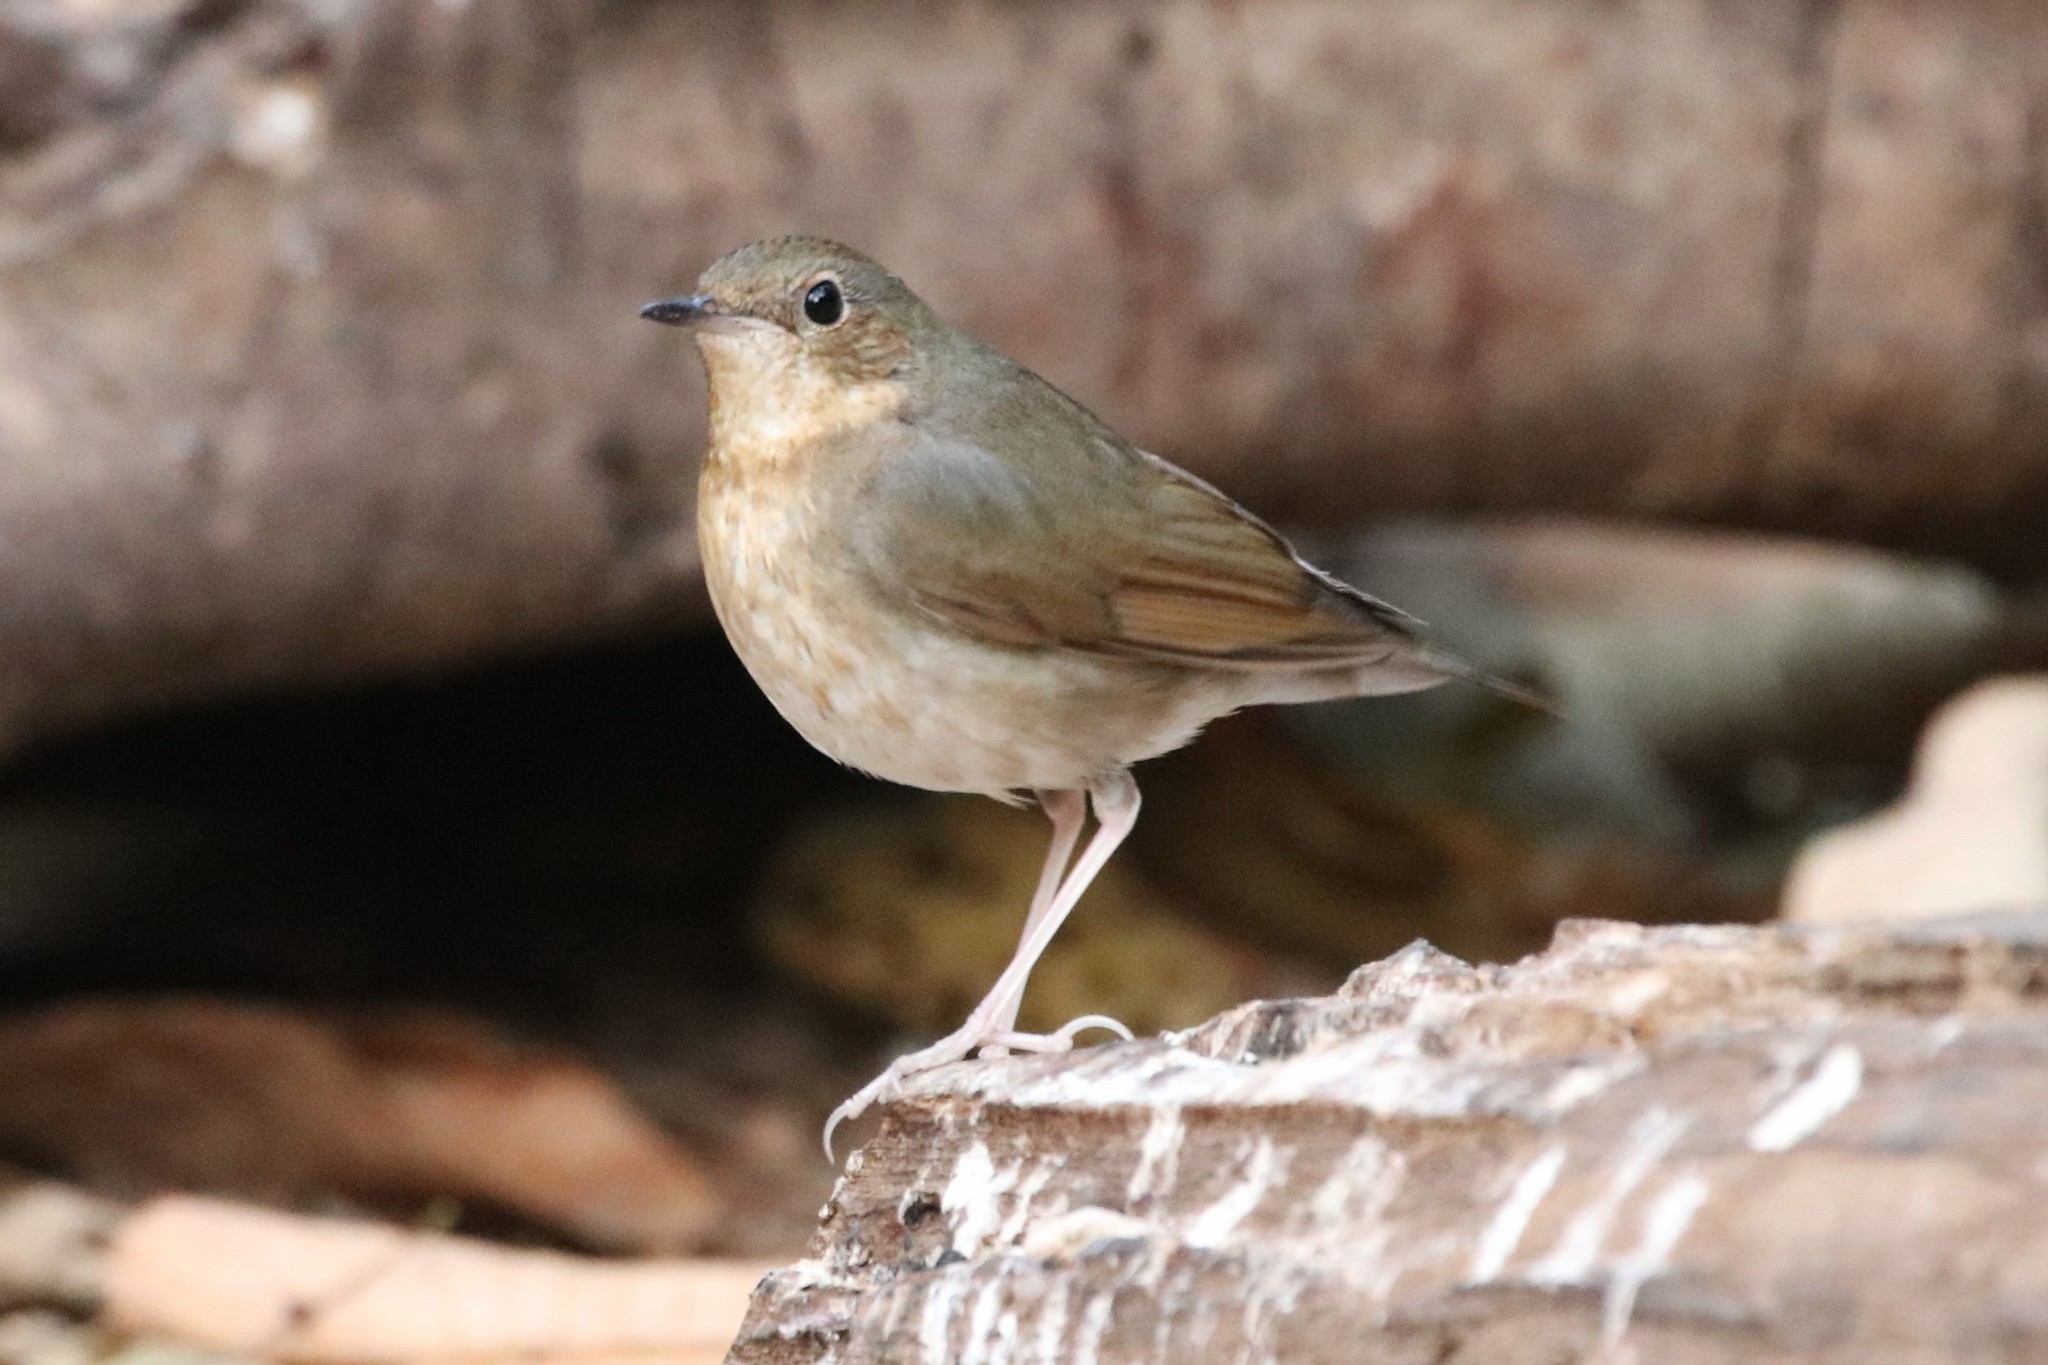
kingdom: Animalia
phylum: Chordata
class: Aves
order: Passeriformes
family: Muscicapidae
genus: Luscinia
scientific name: Luscinia cyane
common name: Siberian blue robin
